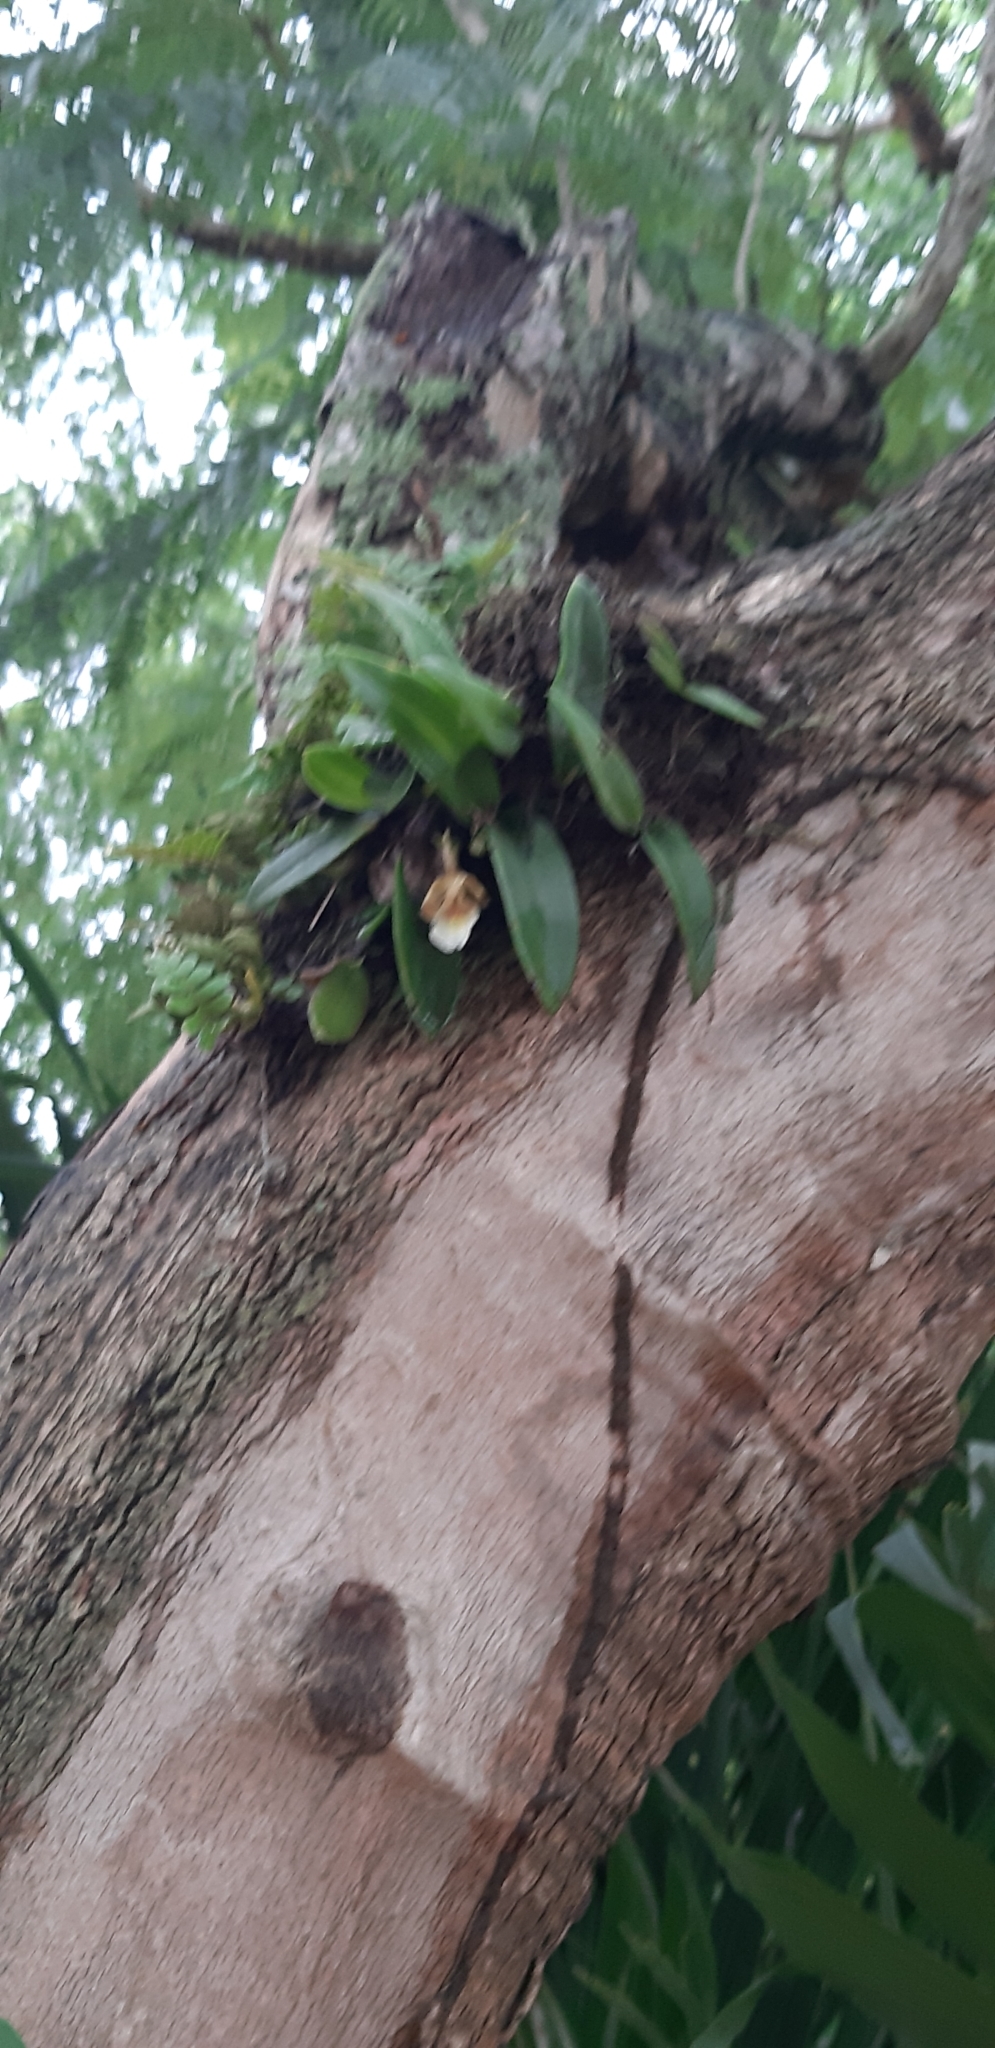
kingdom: Plantae
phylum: Tracheophyta
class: Liliopsida
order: Asparagales
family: Orchidaceae
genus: Trichocentrum
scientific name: Trichocentrum fuscum
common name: Mule-ear orchid
